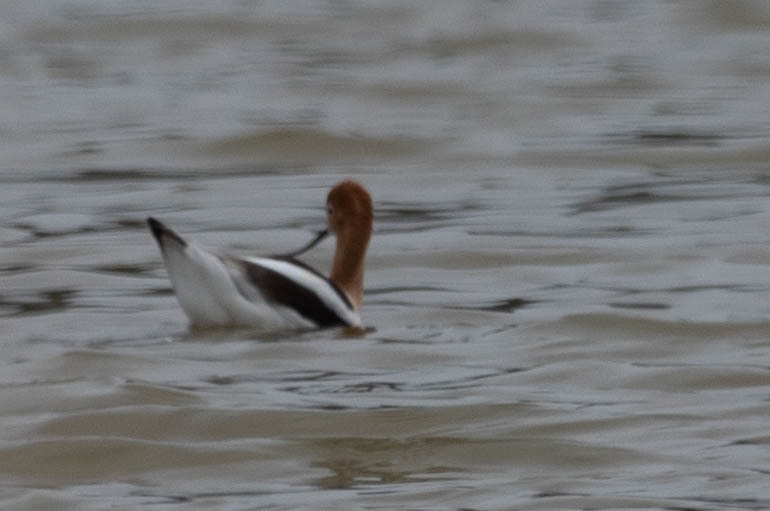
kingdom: Animalia
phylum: Chordata
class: Aves
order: Charadriiformes
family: Recurvirostridae
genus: Recurvirostra
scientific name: Recurvirostra americana
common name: American avocet
